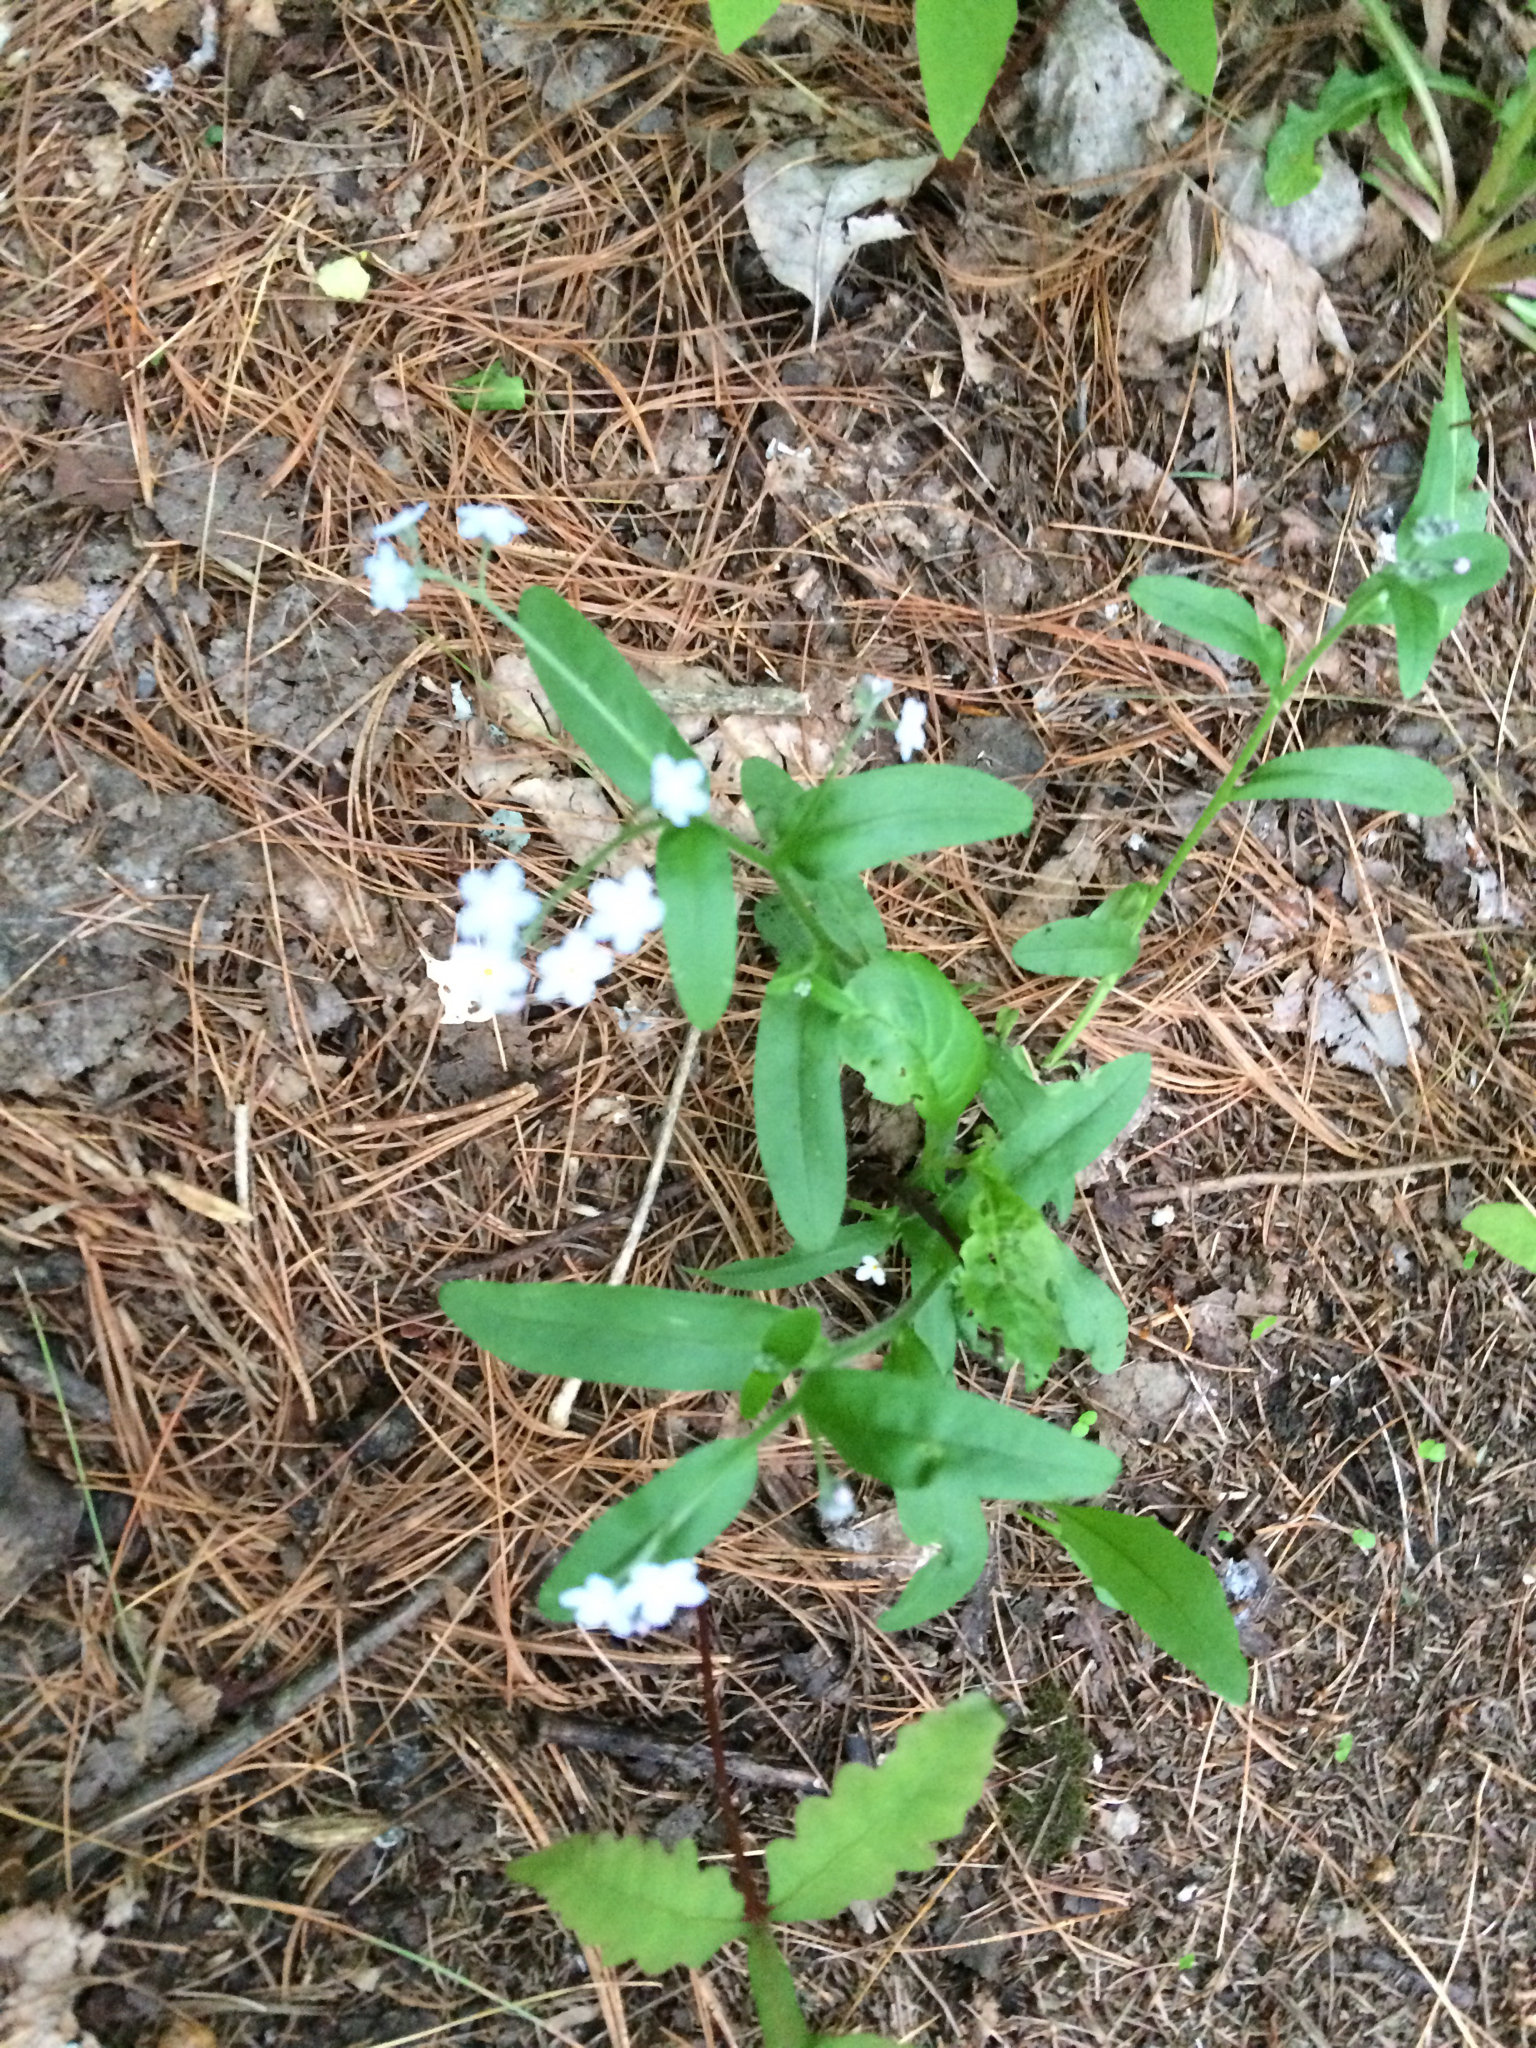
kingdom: Plantae
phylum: Tracheophyta
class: Magnoliopsida
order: Boraginales
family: Boraginaceae
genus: Myosotis
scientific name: Myosotis sylvatica
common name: Wood forget-me-not
